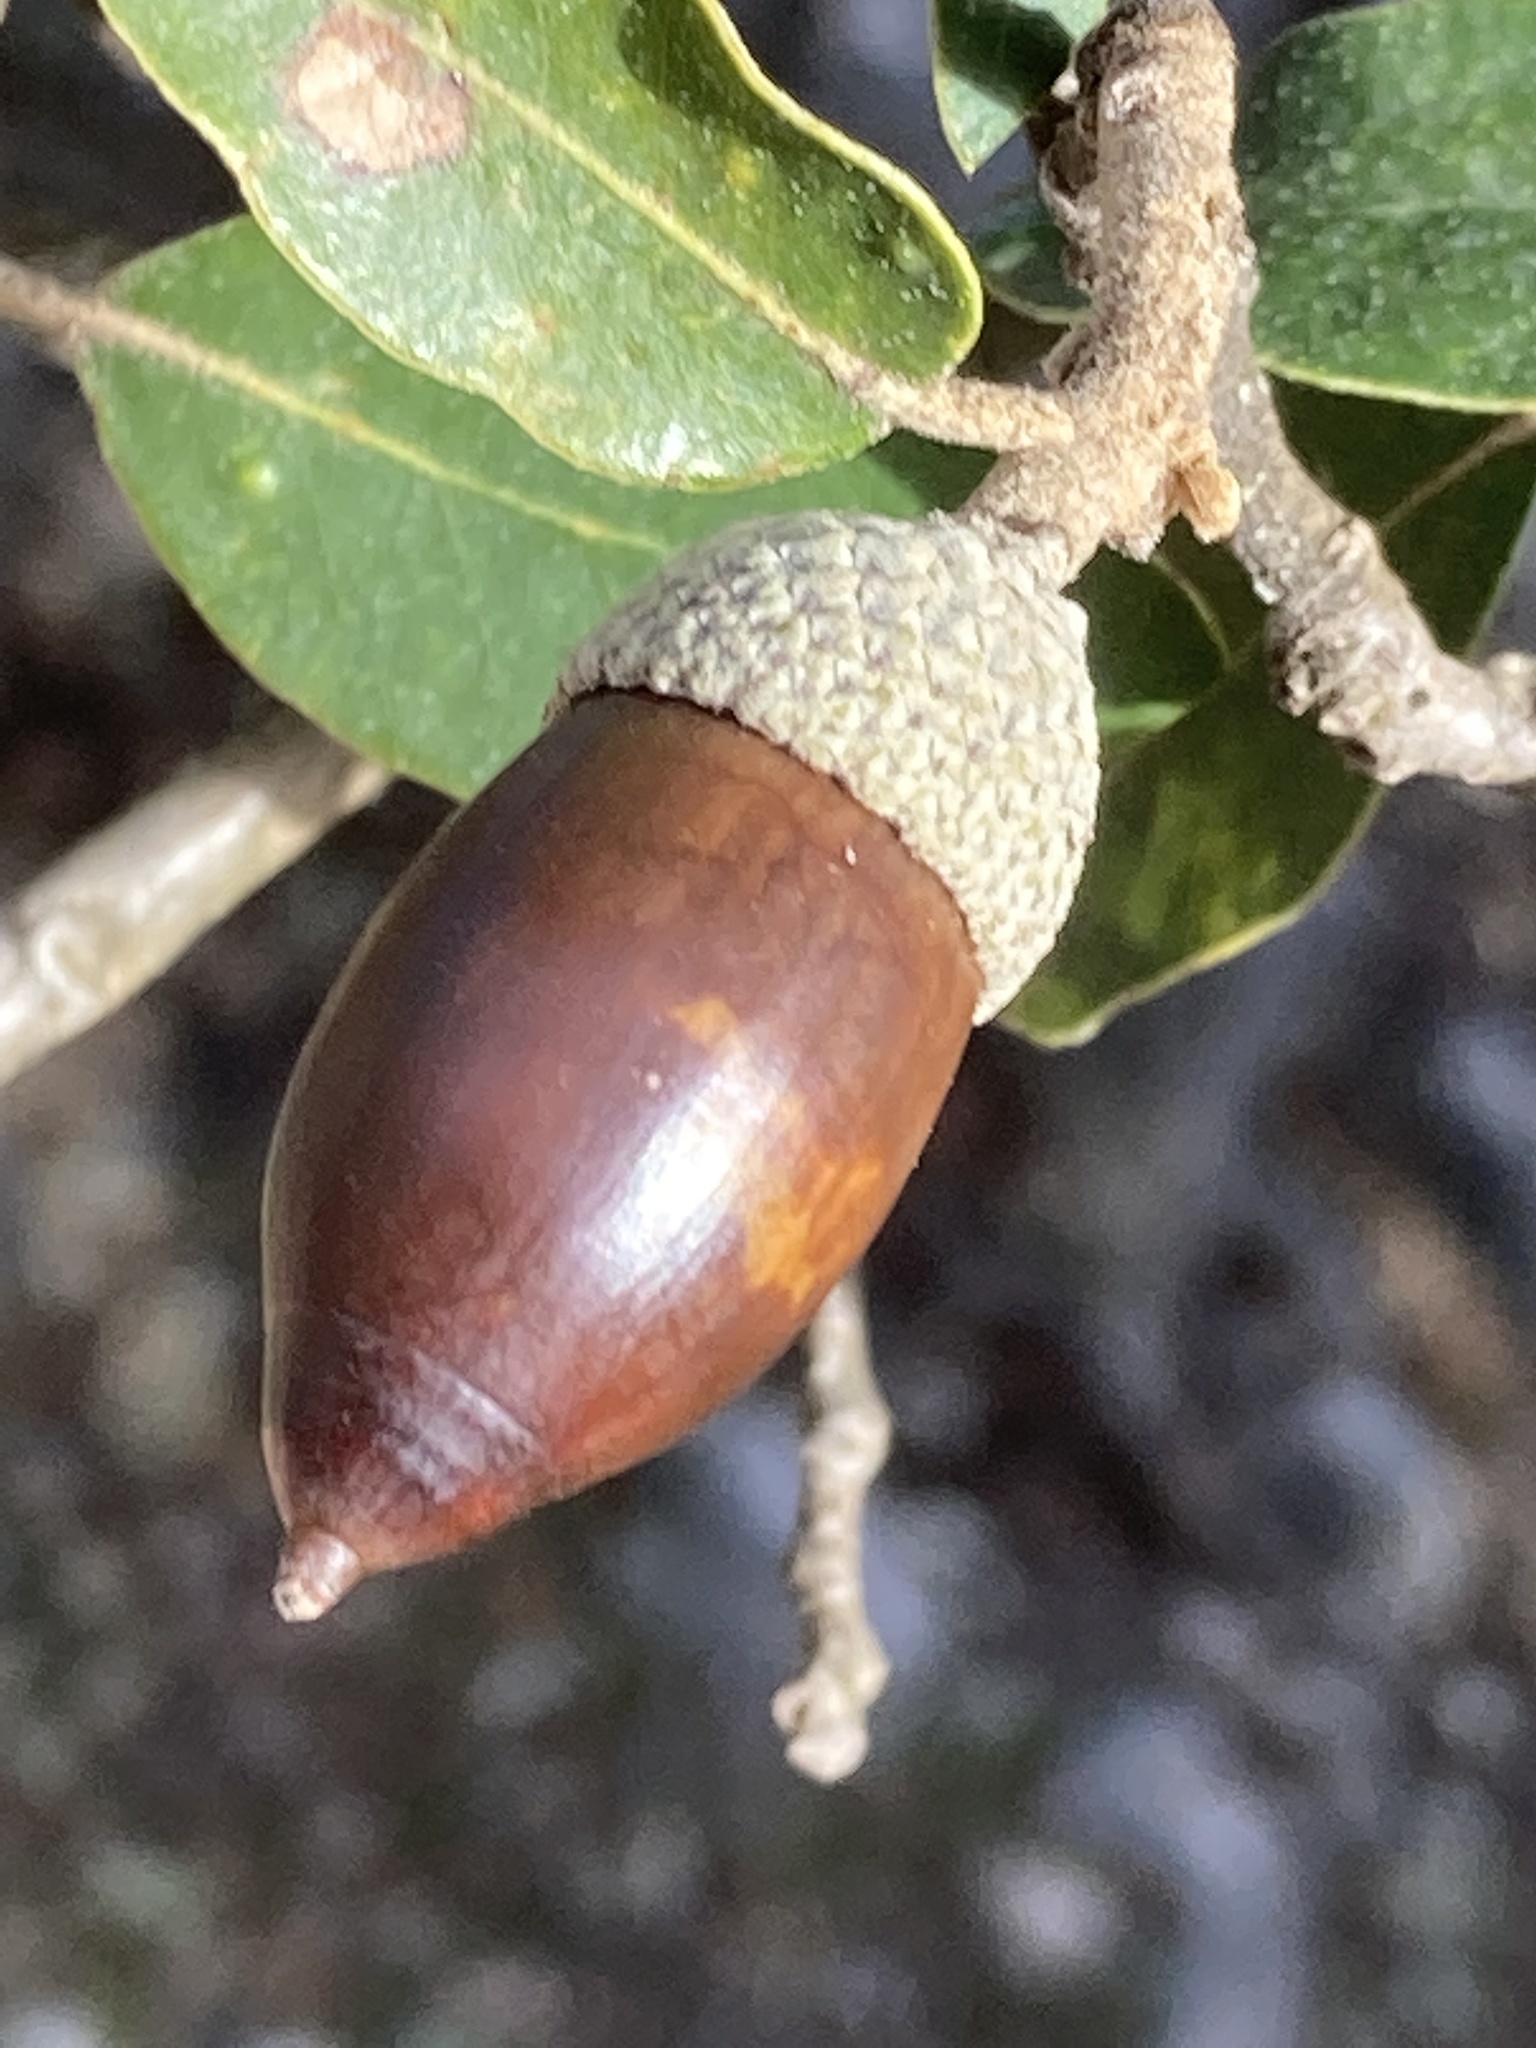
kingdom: Plantae
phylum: Tracheophyta
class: Magnoliopsida
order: Fagales
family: Fagaceae
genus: Quercus
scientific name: Quercus ilex
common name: Evergreen oak
